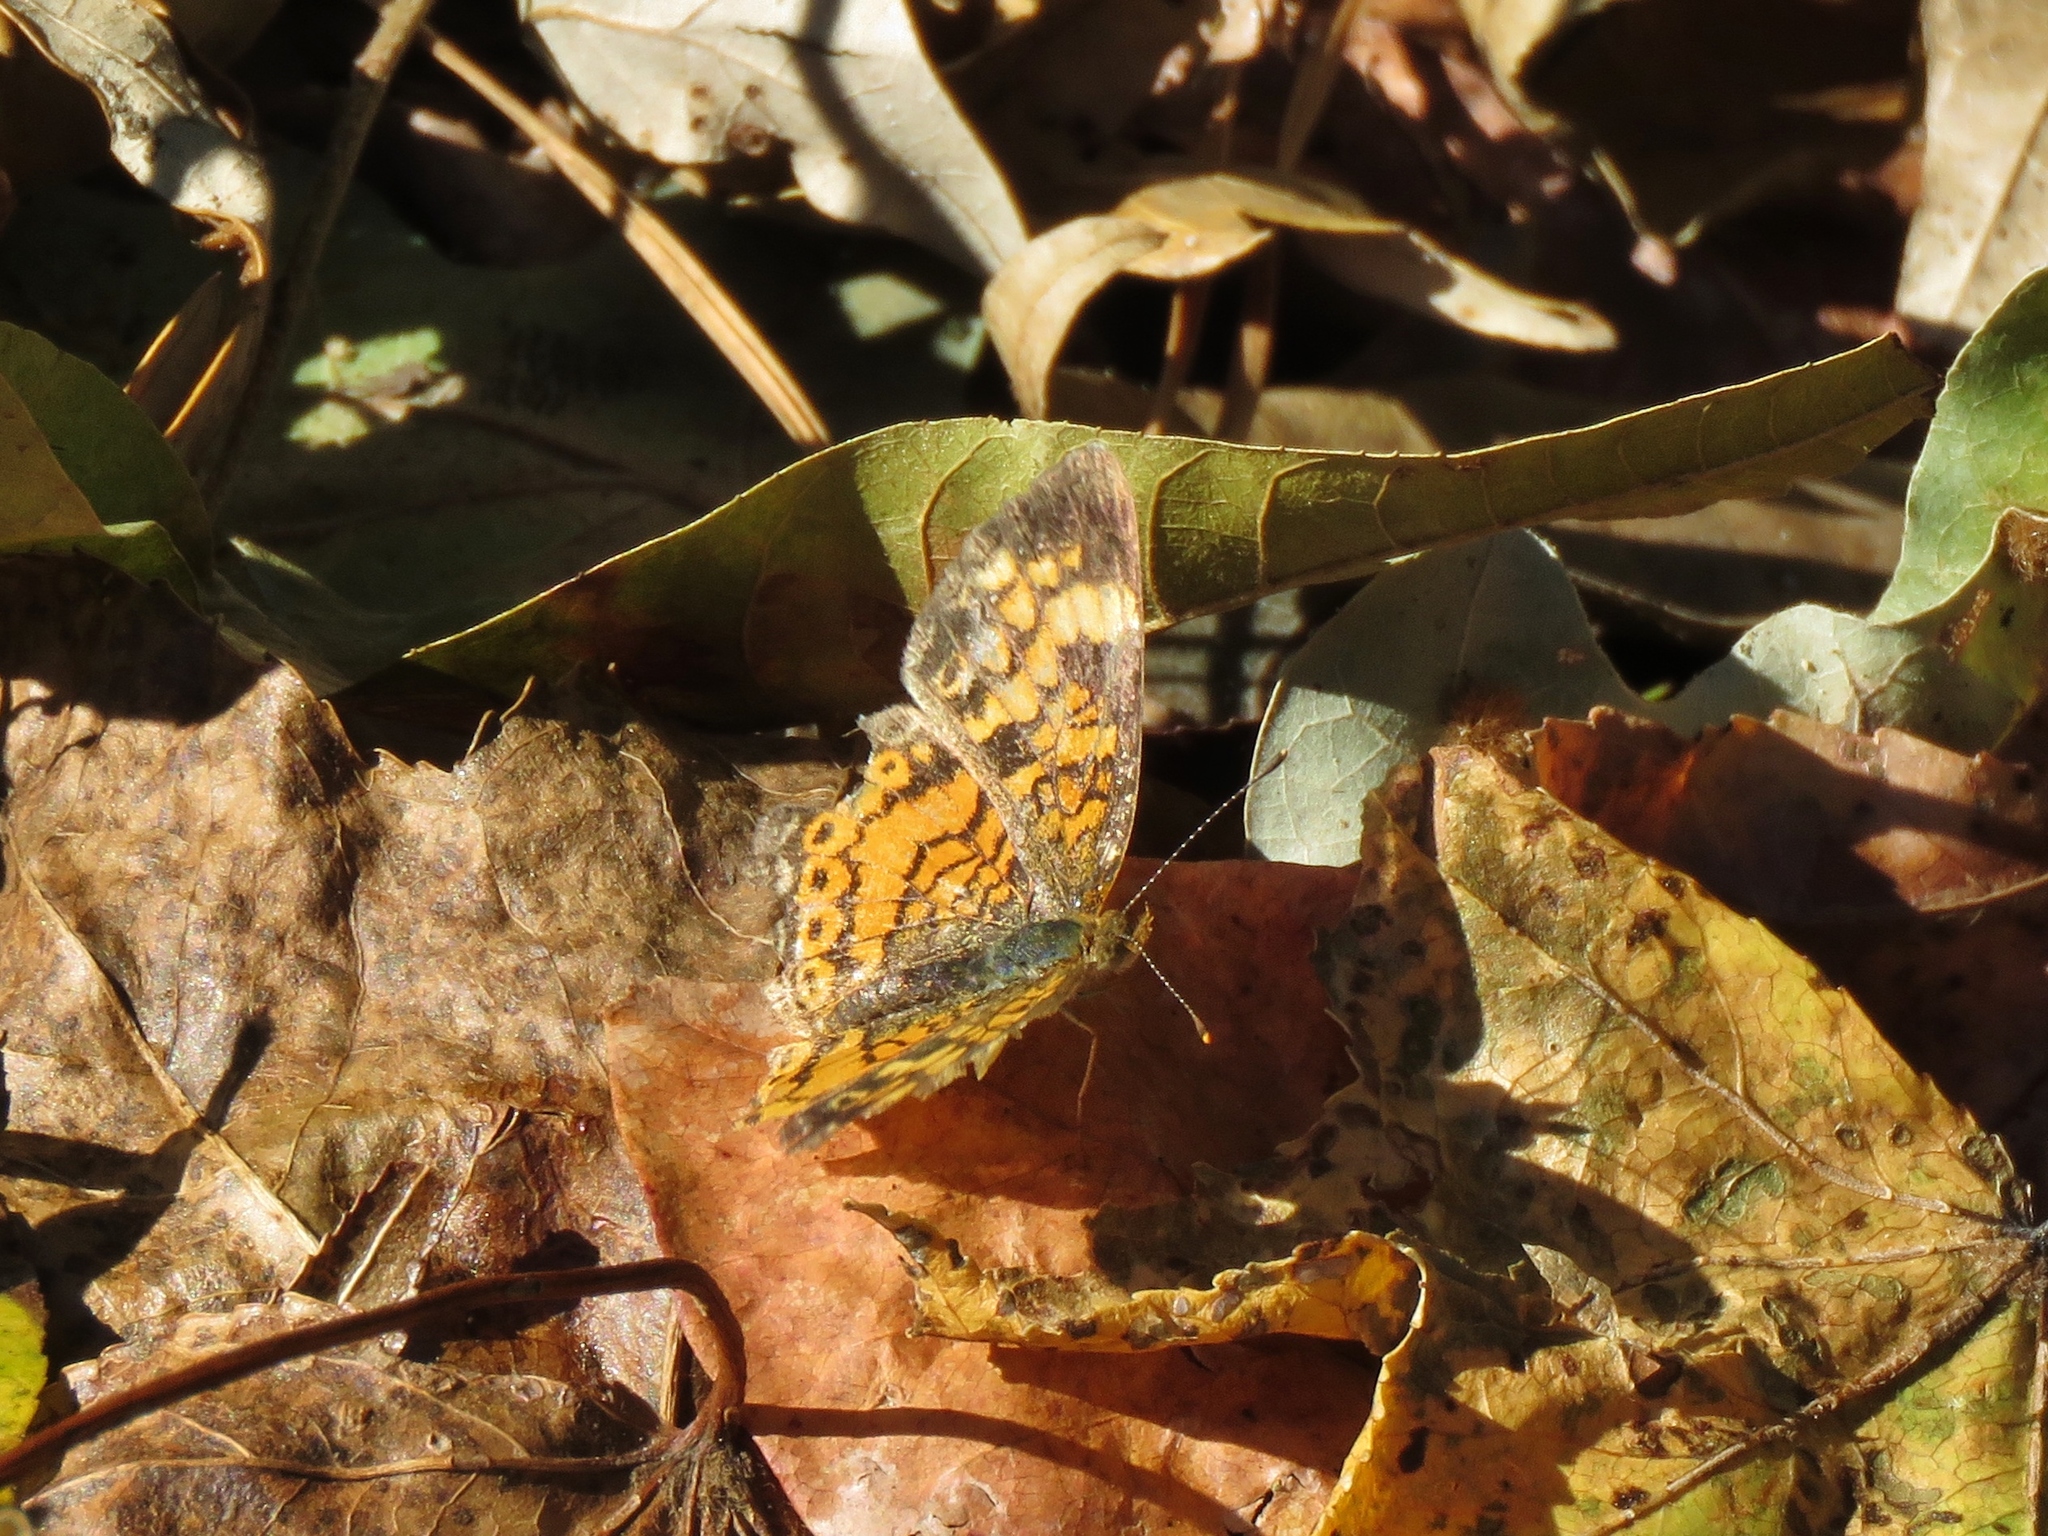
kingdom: Animalia
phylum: Arthropoda
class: Insecta
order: Lepidoptera
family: Nymphalidae
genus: Phyciodes
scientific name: Phyciodes tharos
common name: Pearl crescent
